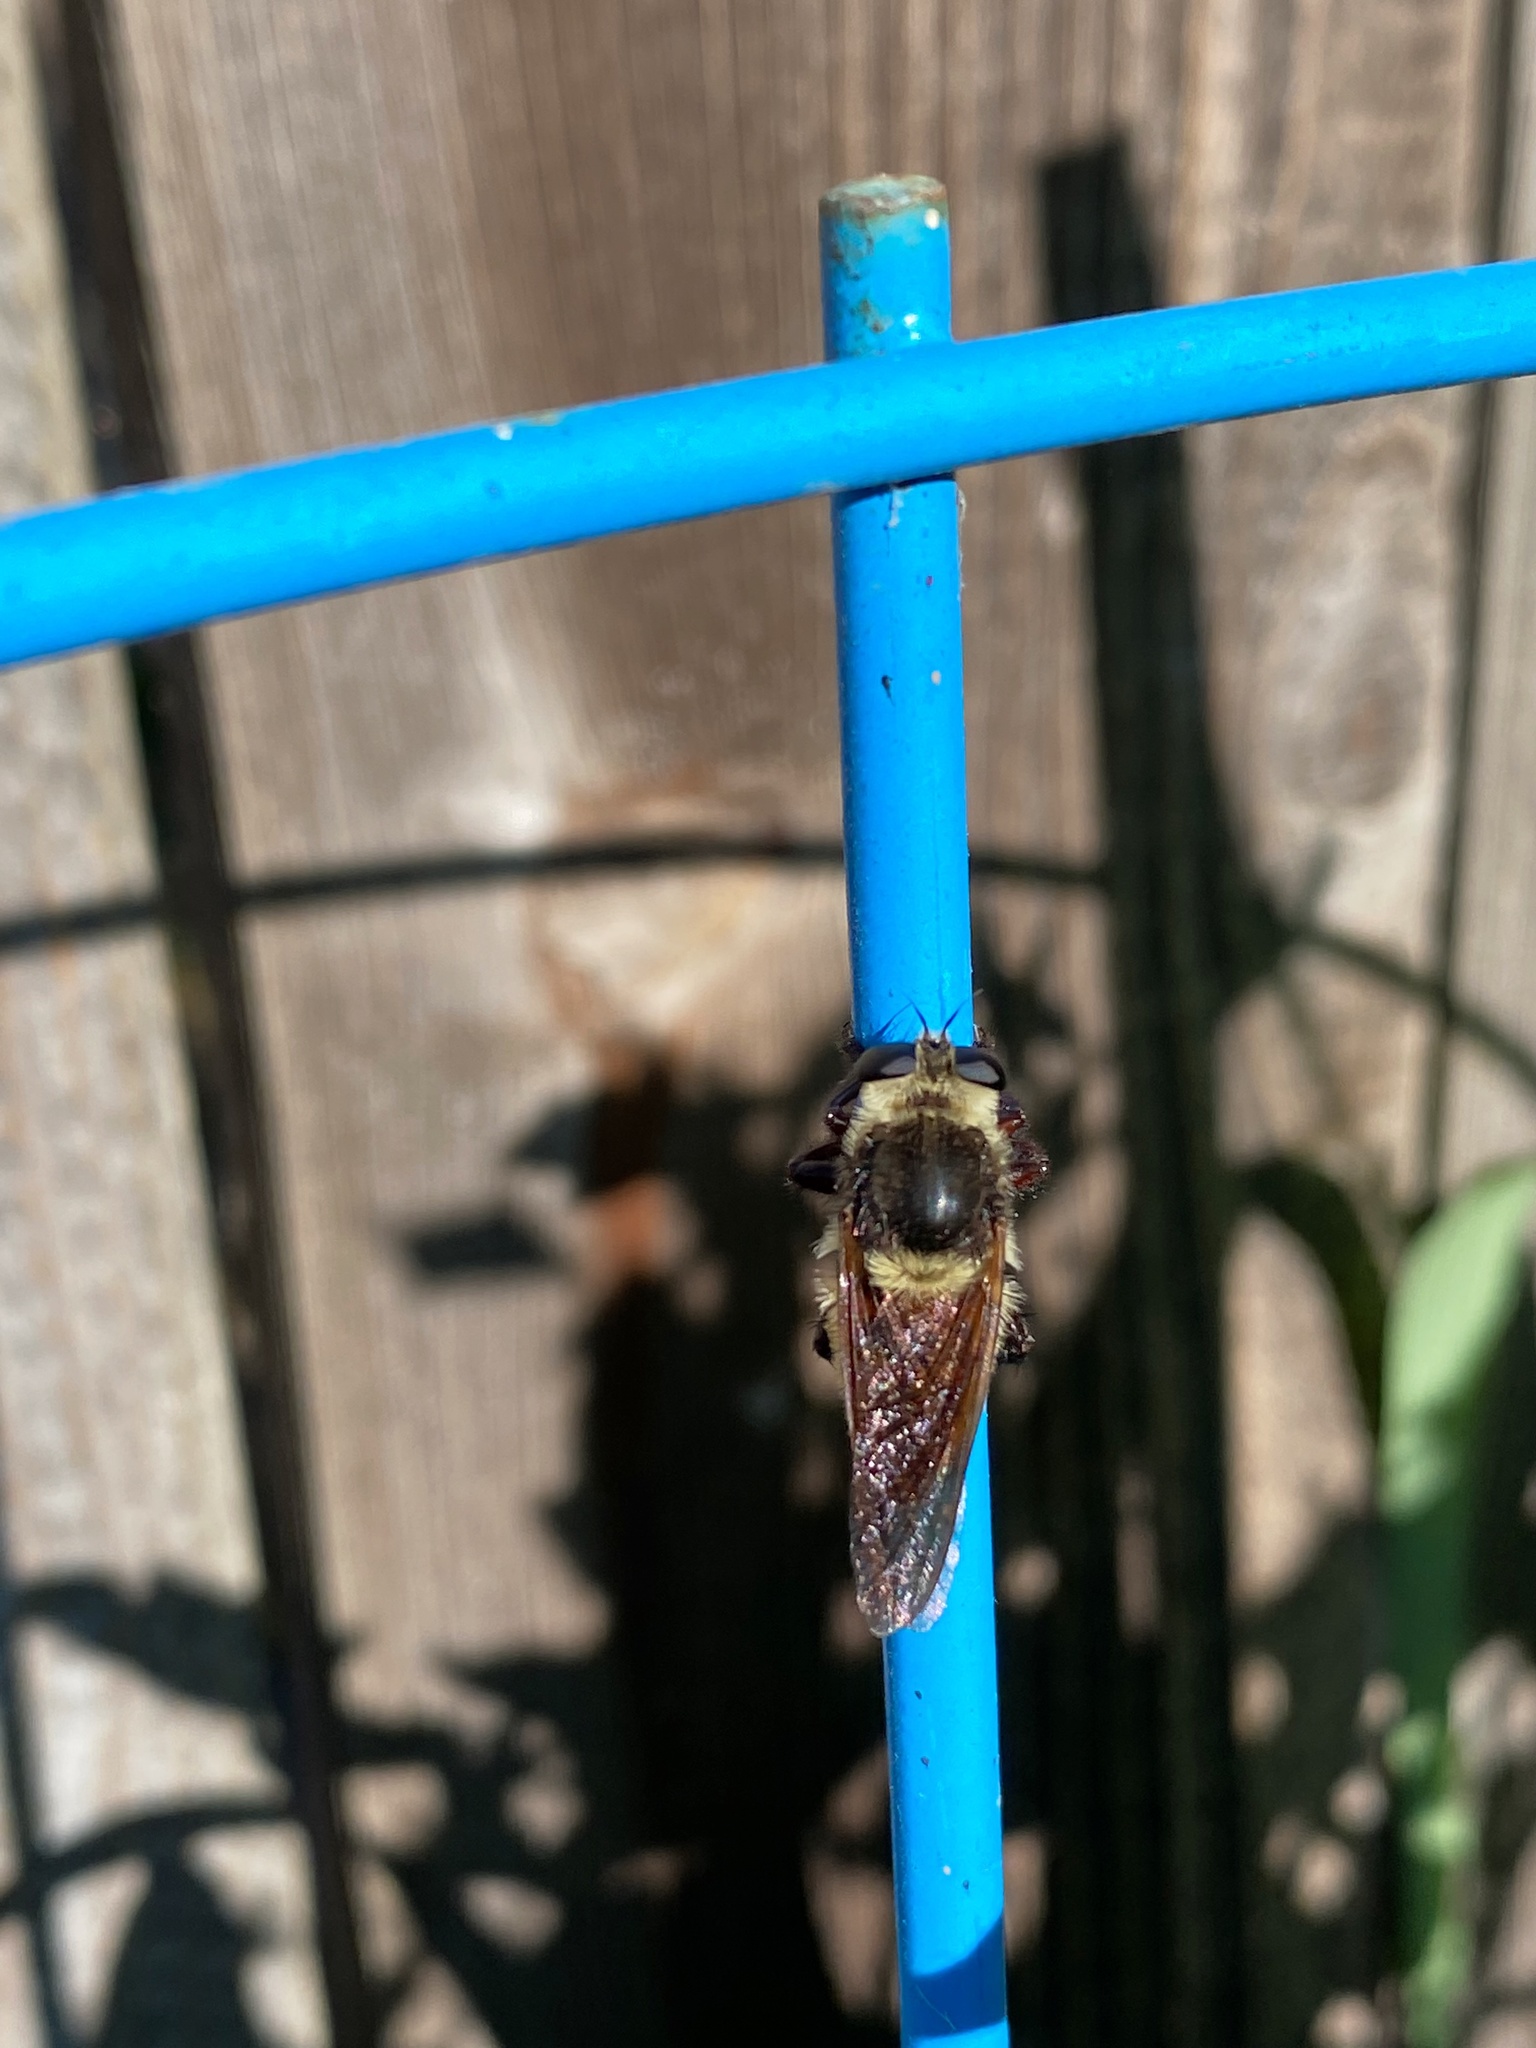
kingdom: Animalia
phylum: Arthropoda
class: Insecta
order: Diptera
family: Asilidae
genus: Mallophora
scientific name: Mallophora fautrix
